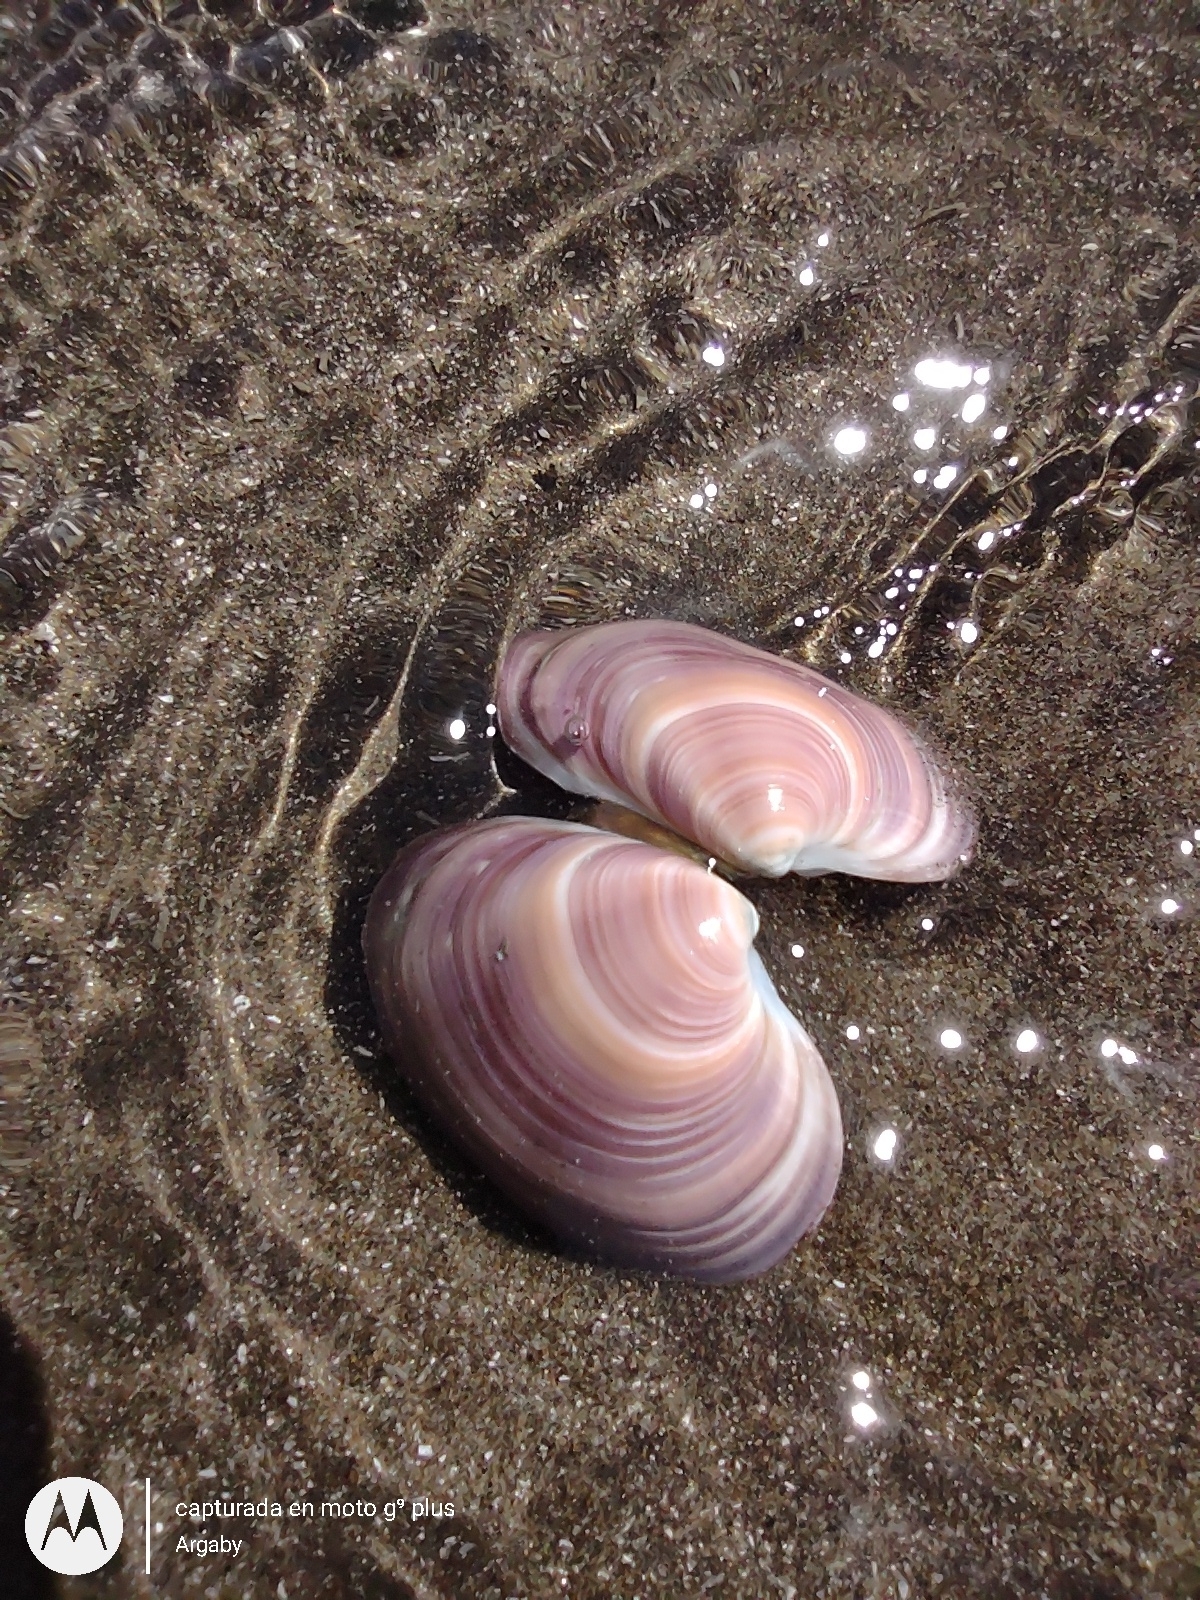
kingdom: Animalia
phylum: Mollusca
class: Bivalvia
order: Venerida
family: Veneridae
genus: Eucallista
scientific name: Eucallista purpurata
